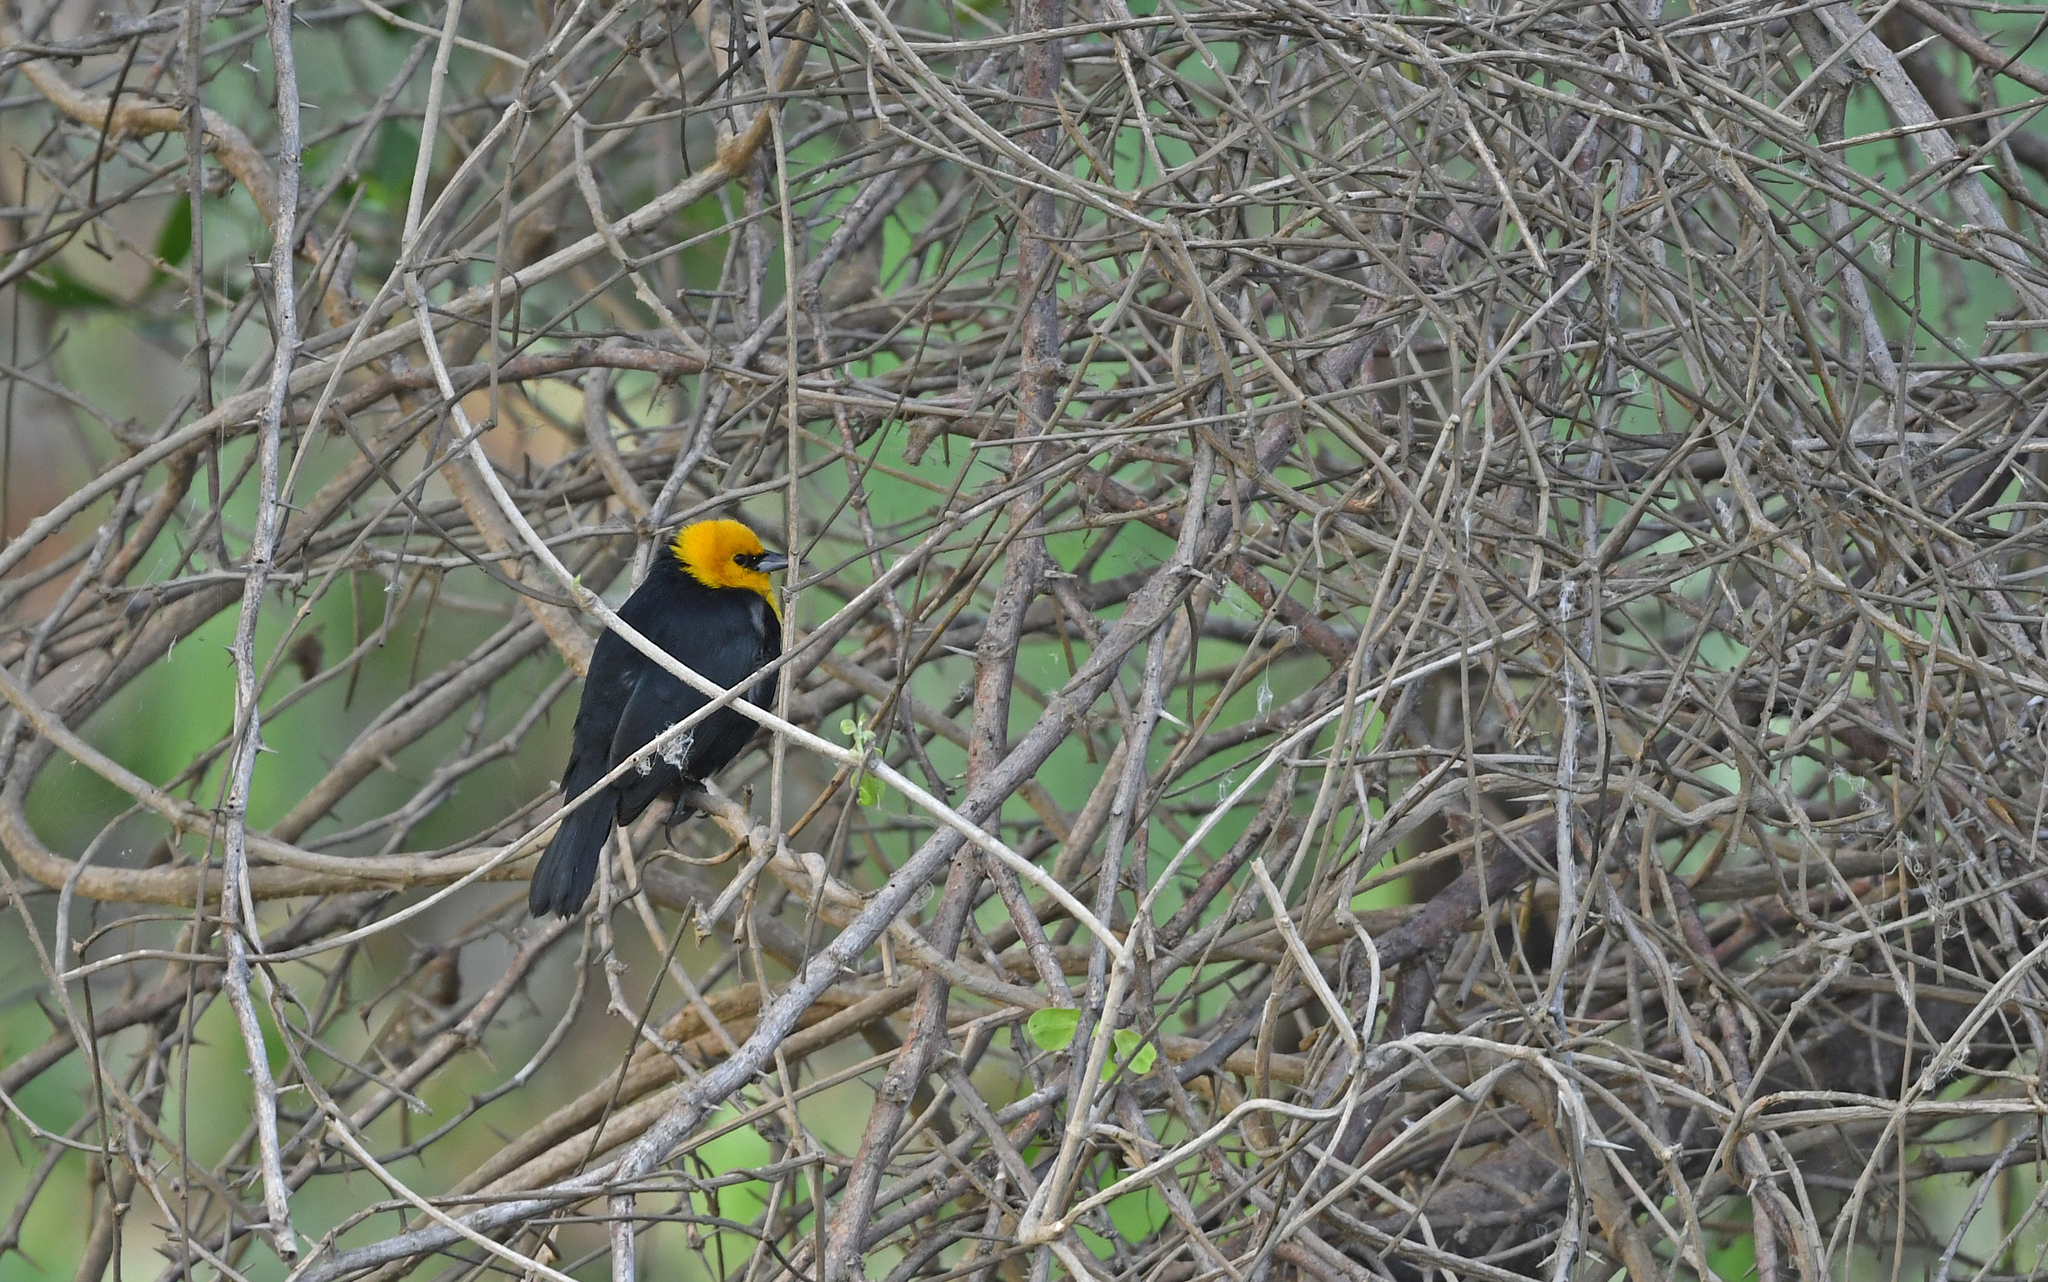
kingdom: Animalia
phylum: Chordata
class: Aves
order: Passeriformes
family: Icteridae
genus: Chrysomus
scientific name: Chrysomus icterocephalus
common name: Yellow-hooded blackbird
